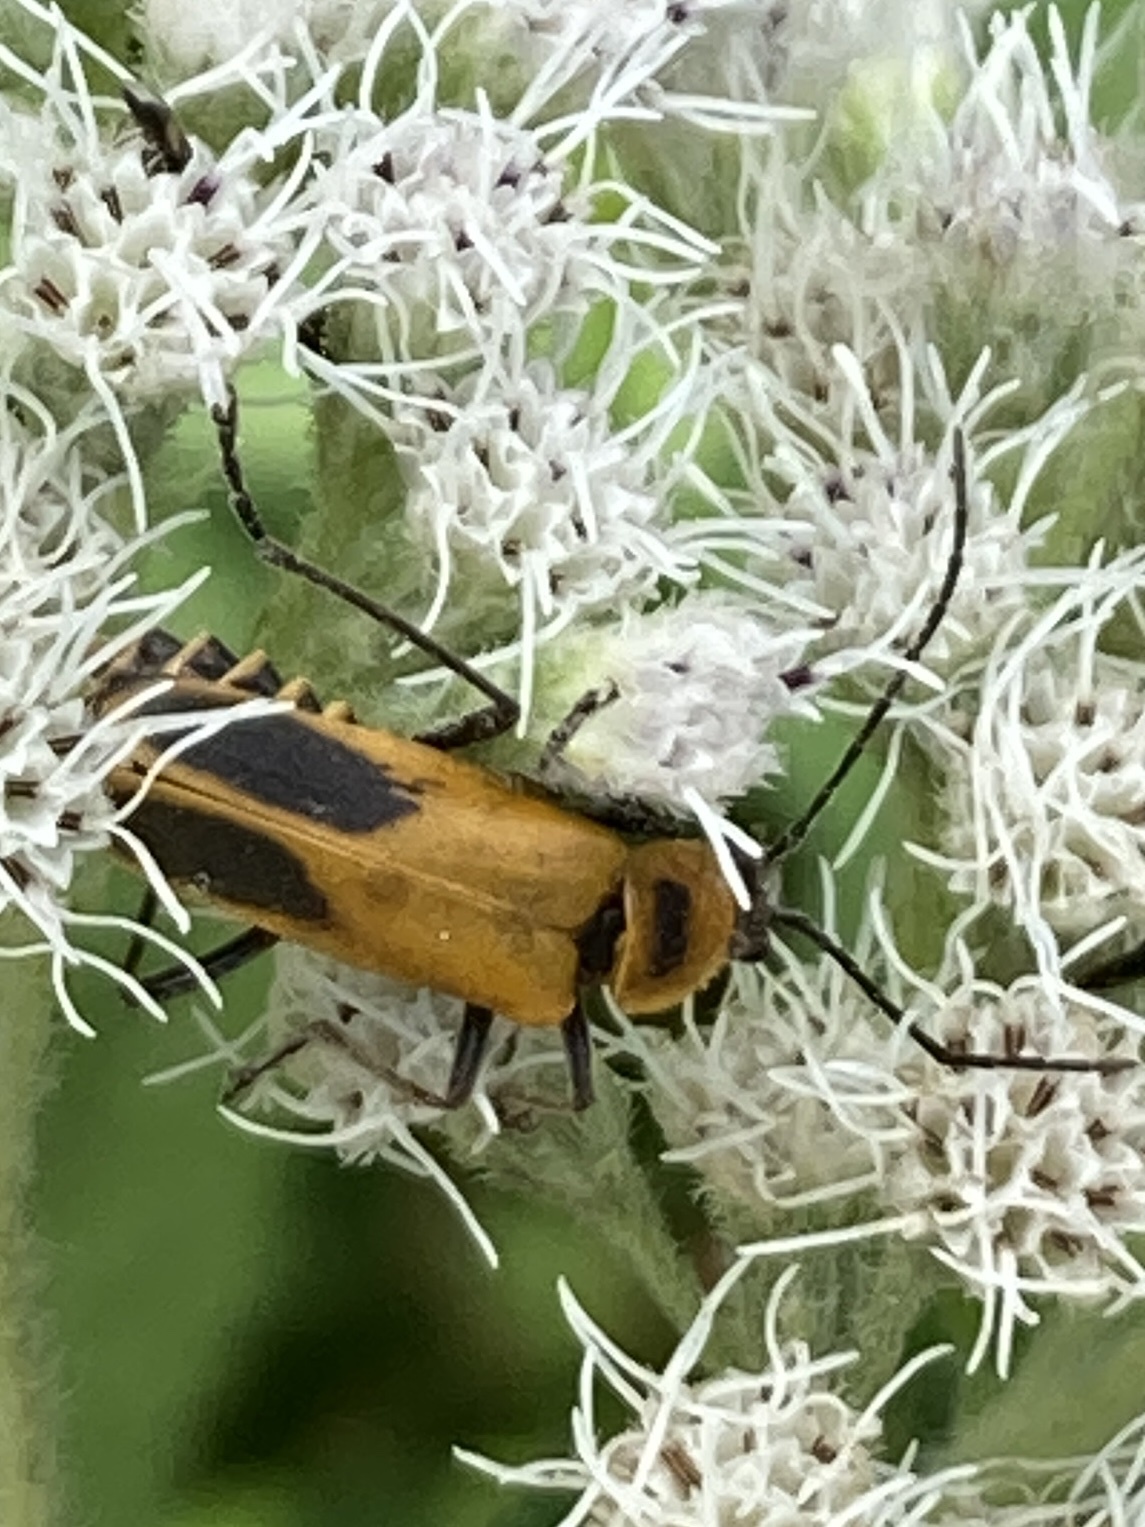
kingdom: Animalia
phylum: Arthropoda
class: Insecta
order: Coleoptera
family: Cantharidae
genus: Chauliognathus
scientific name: Chauliognathus pensylvanicus
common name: Goldenrod soldier beetle
